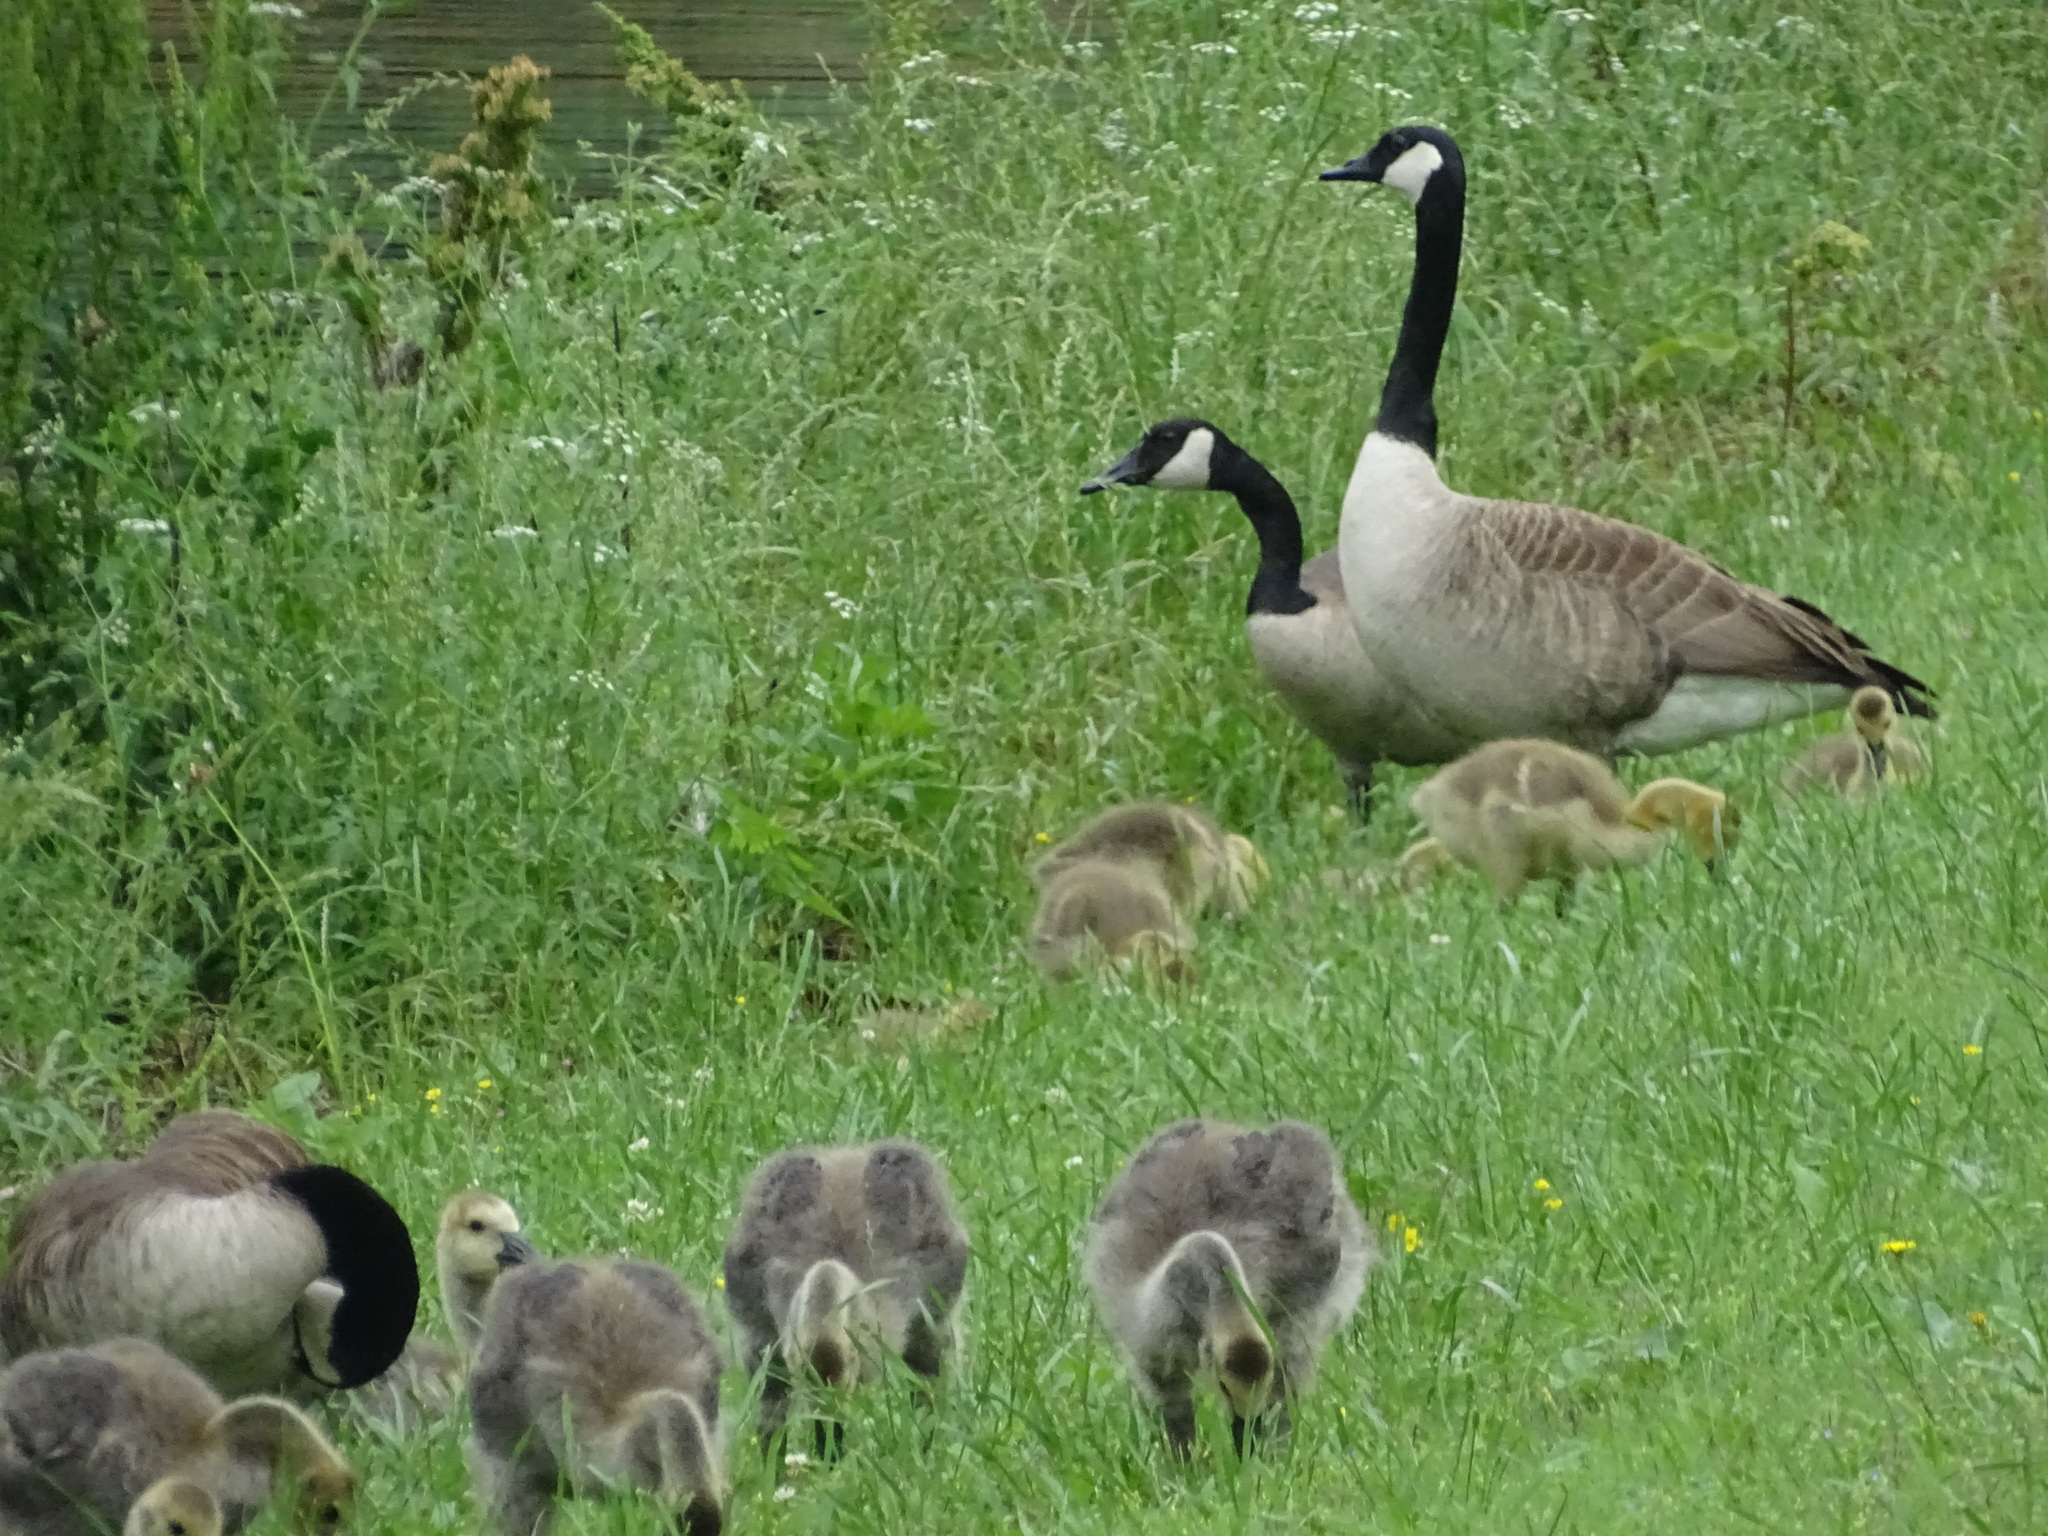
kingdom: Animalia
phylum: Chordata
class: Aves
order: Anseriformes
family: Anatidae
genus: Branta
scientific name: Branta canadensis
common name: Canada goose
